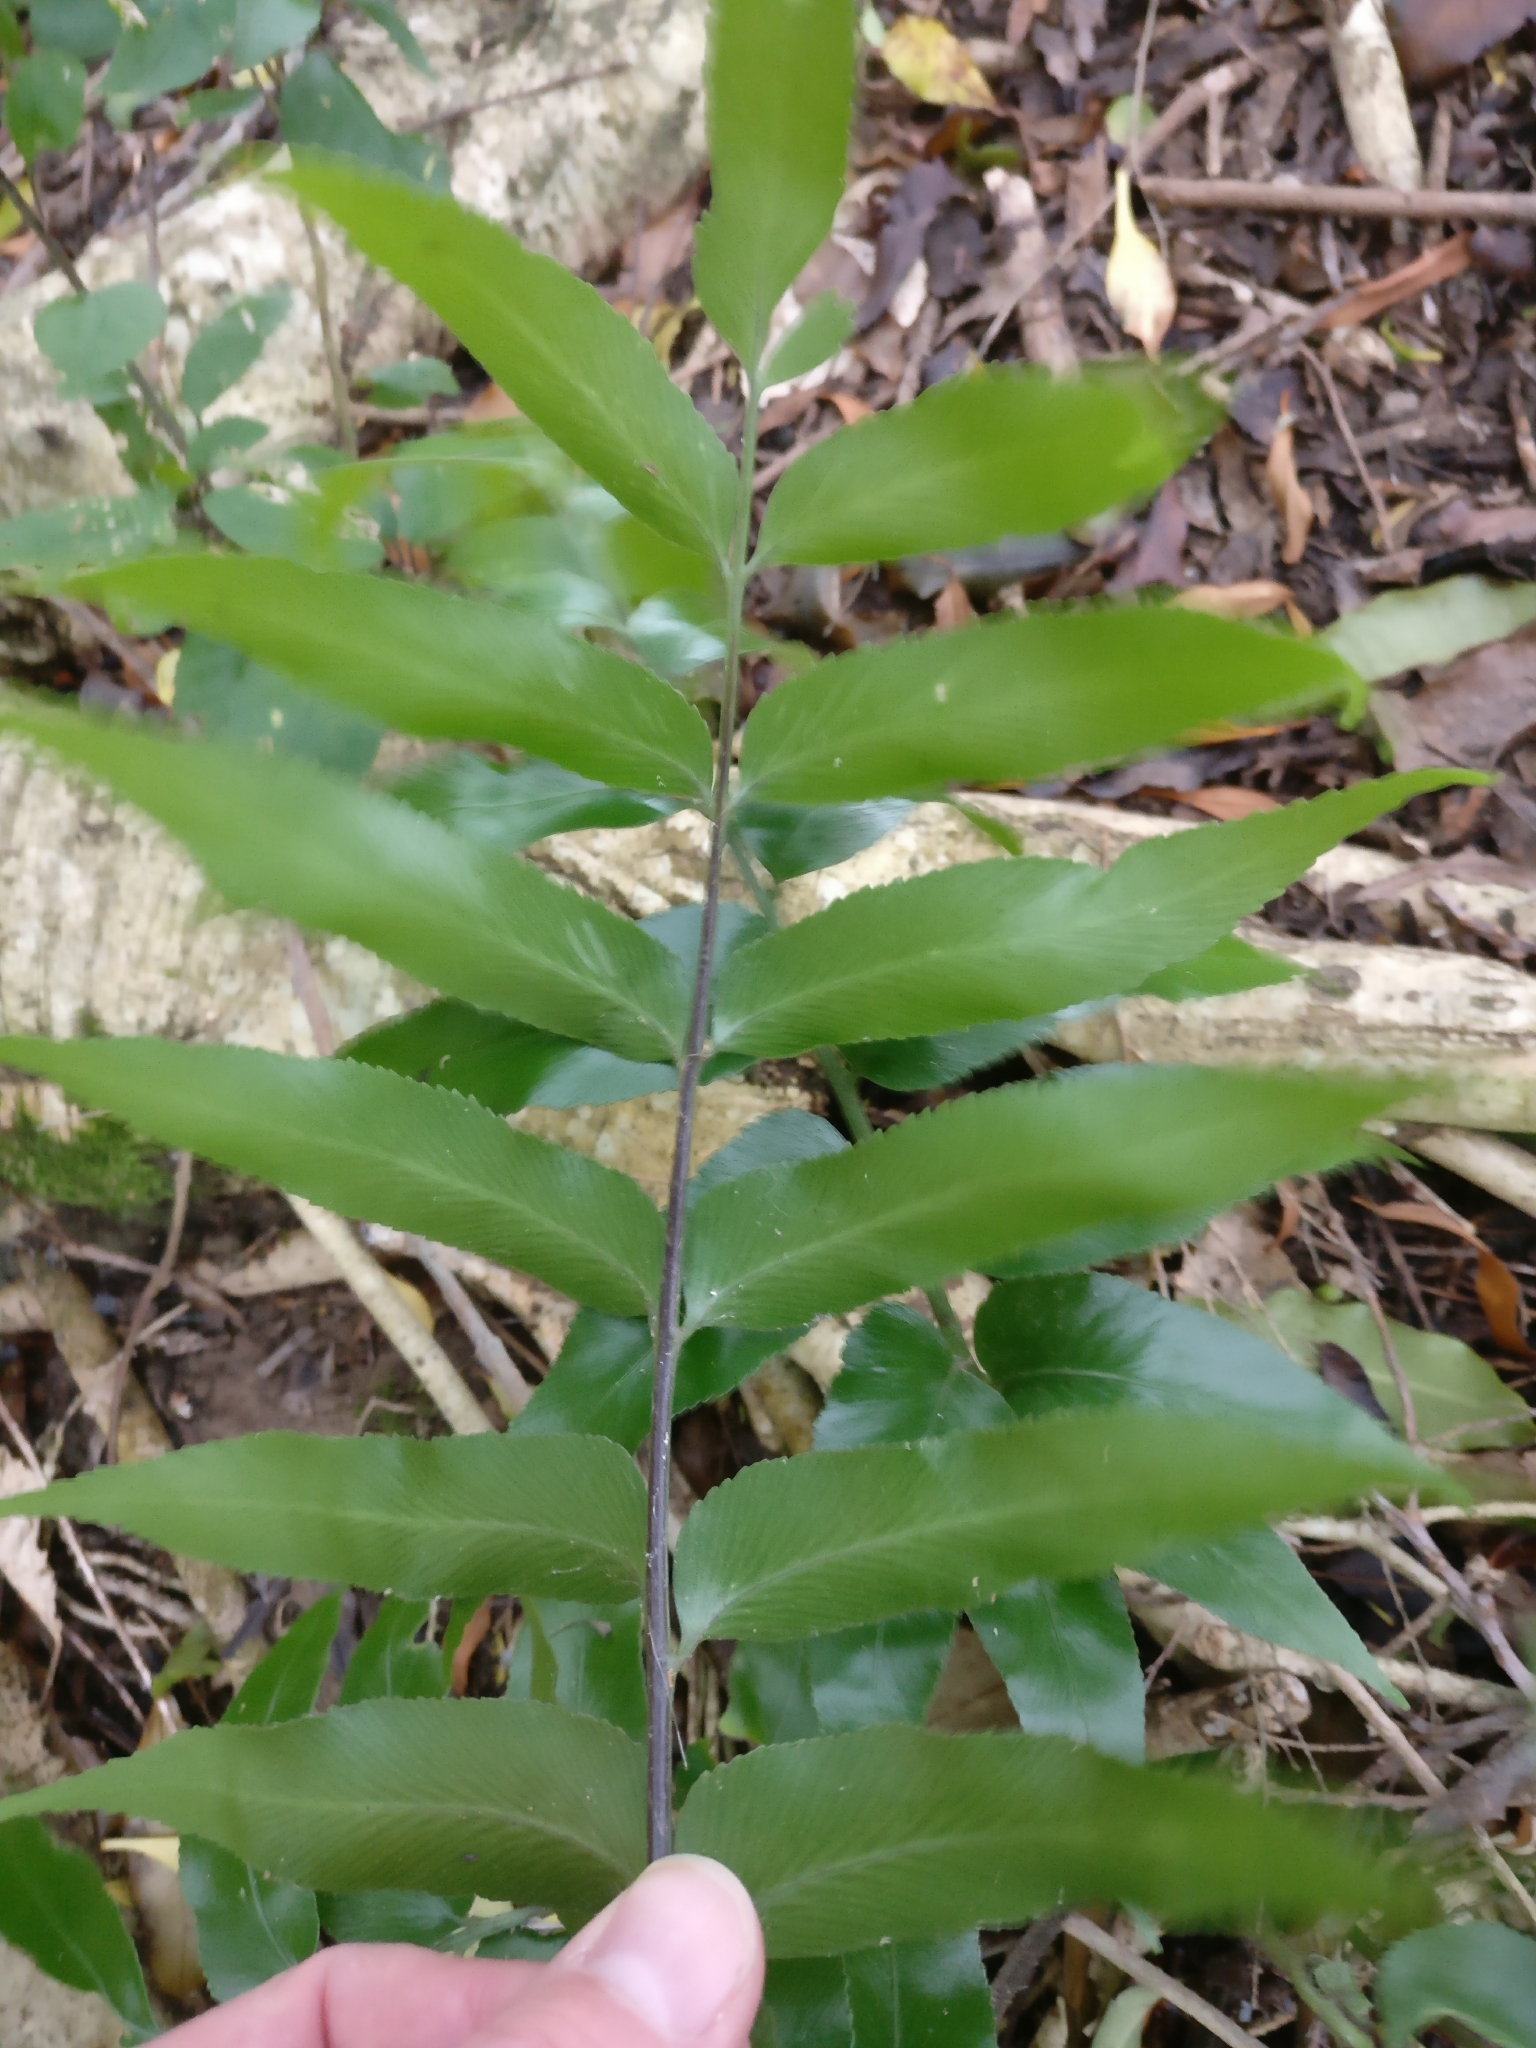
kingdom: Plantae
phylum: Tracheophyta
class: Polypodiopsida
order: Polypodiales
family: Aspleniaceae
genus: Asplenium
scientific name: Asplenium oblongifolium
